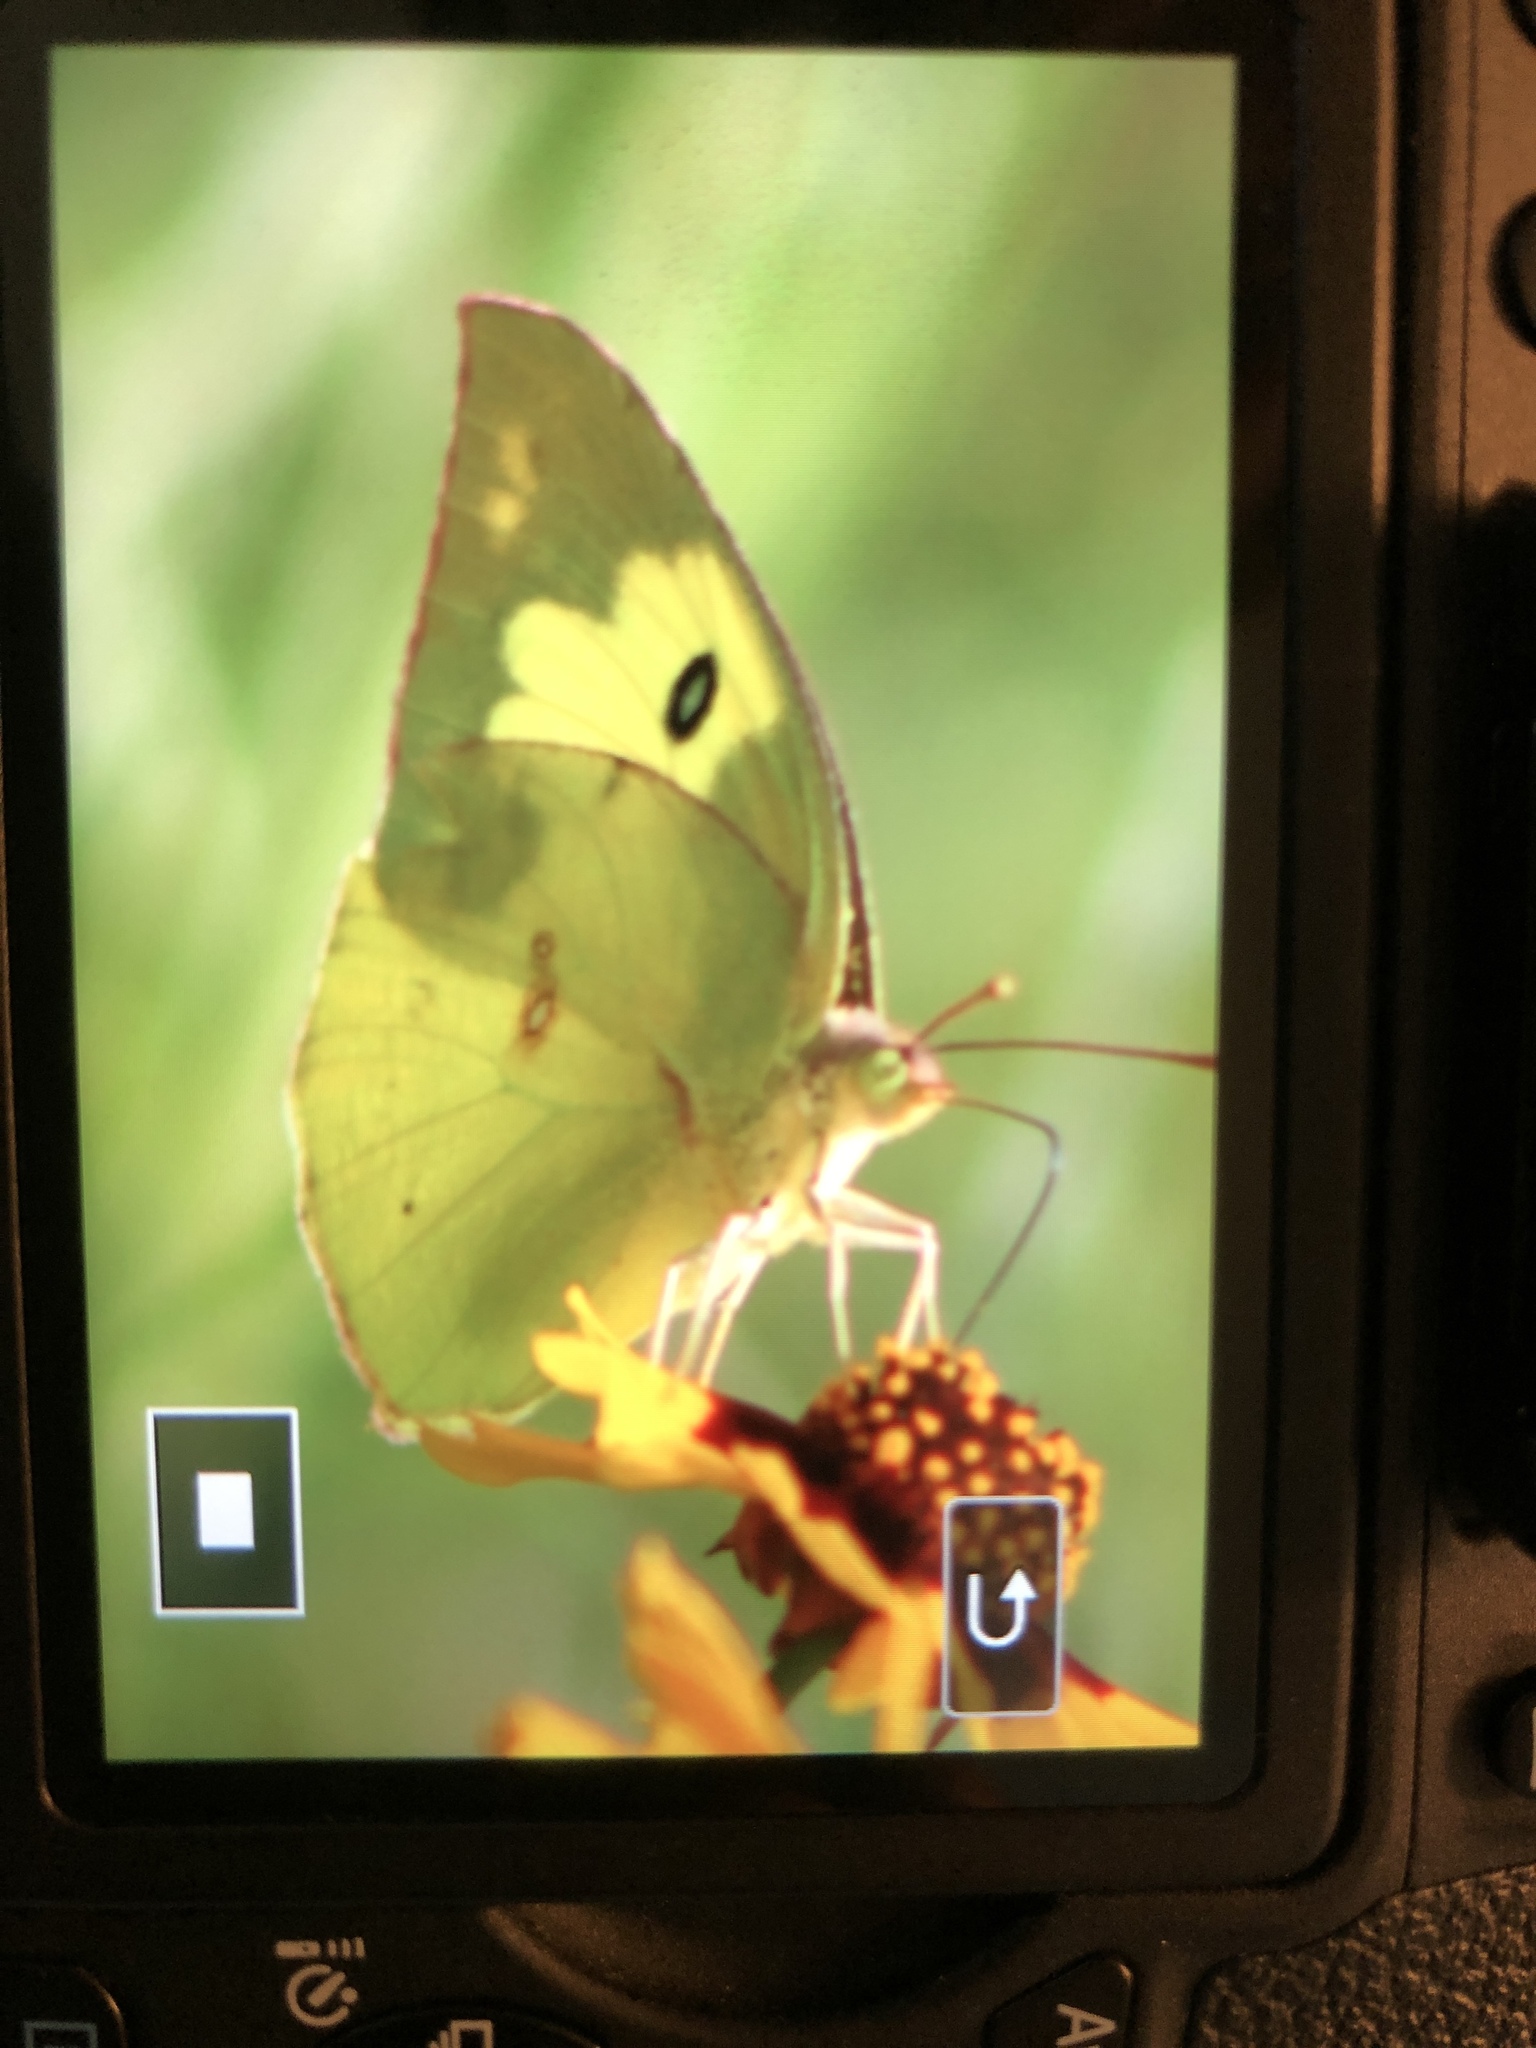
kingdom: Animalia
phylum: Arthropoda
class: Insecta
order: Lepidoptera
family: Pieridae
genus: Zerene
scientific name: Zerene cesonia
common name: Southern dogface
